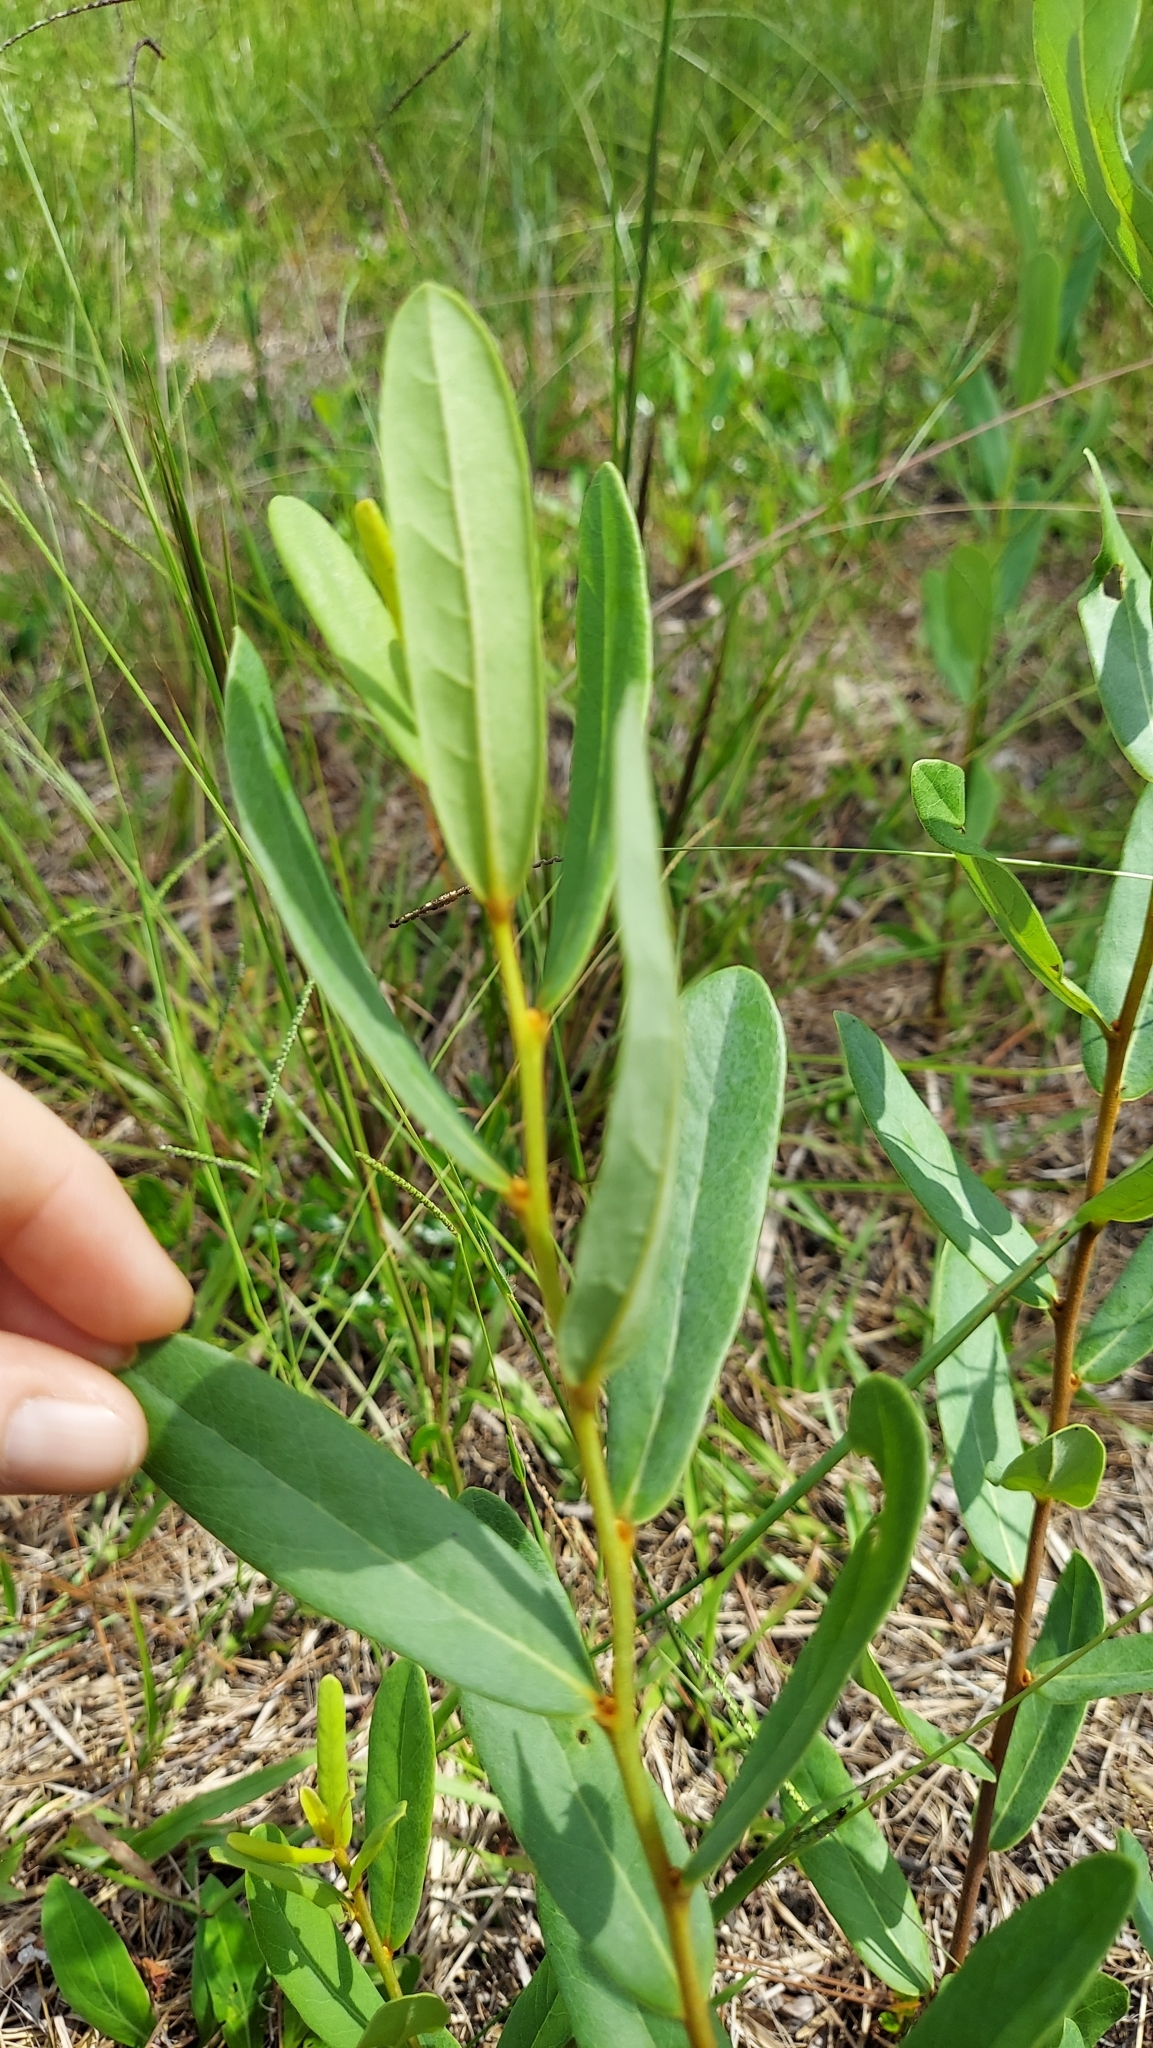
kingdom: Plantae
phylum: Tracheophyta
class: Magnoliopsida
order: Magnoliales
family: Annonaceae
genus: Asimina
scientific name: Asimina reticulata
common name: Flag pawpaw
